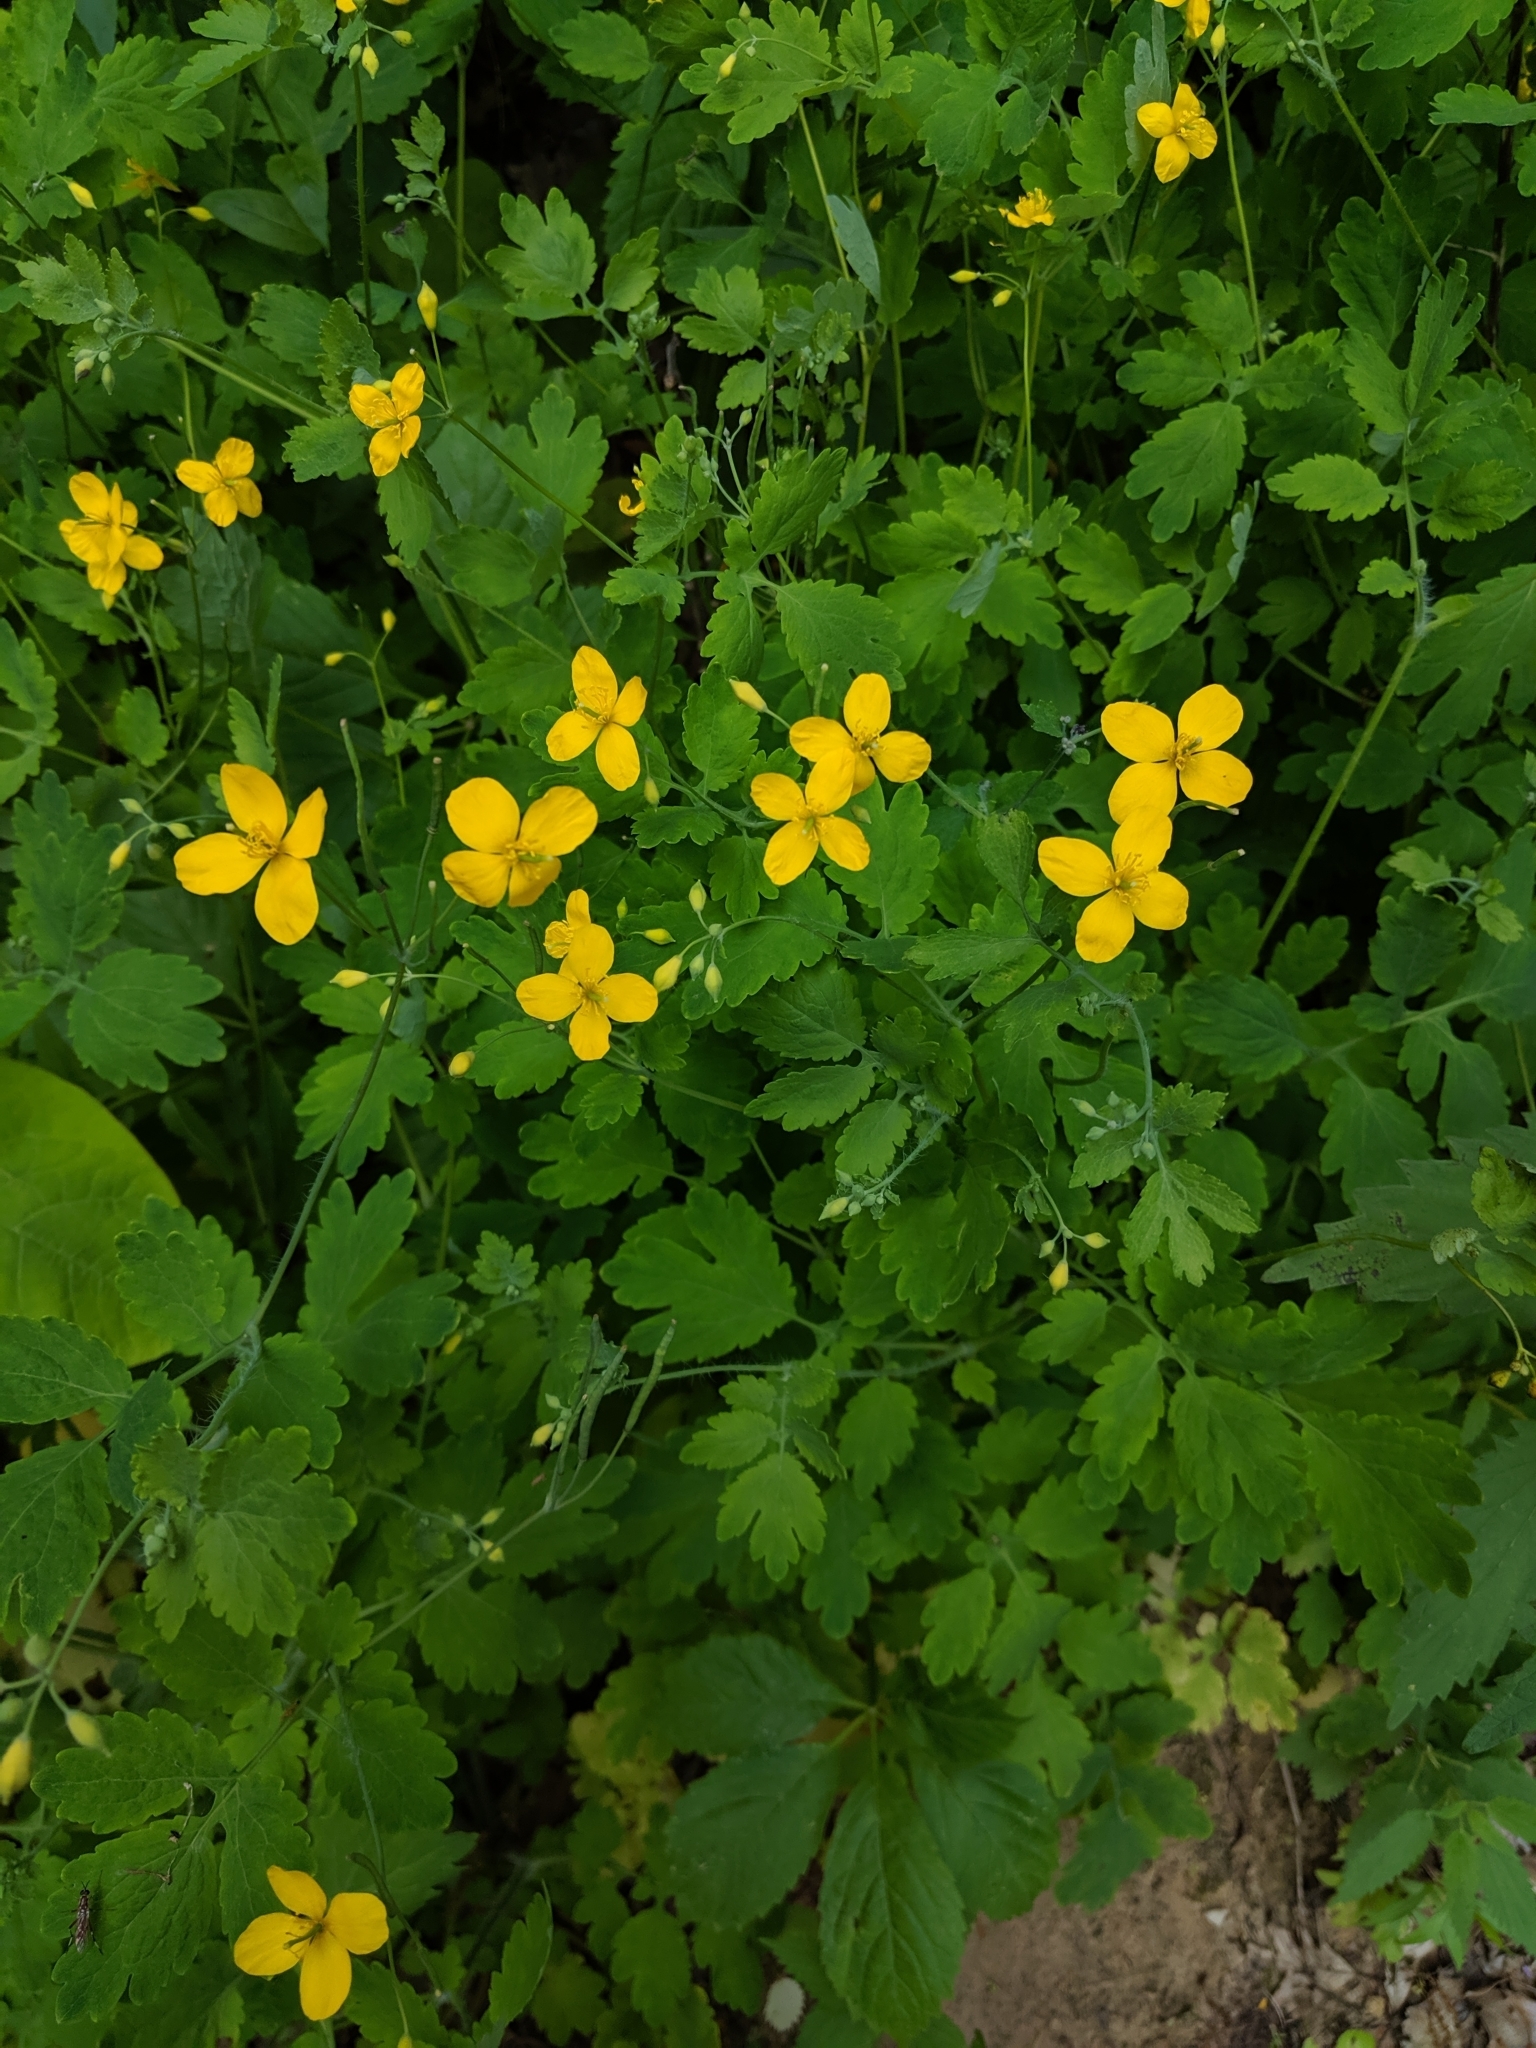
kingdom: Plantae
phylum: Tracheophyta
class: Magnoliopsida
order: Ranunculales
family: Papaveraceae
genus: Chelidonium
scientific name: Chelidonium majus
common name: Greater celandine
